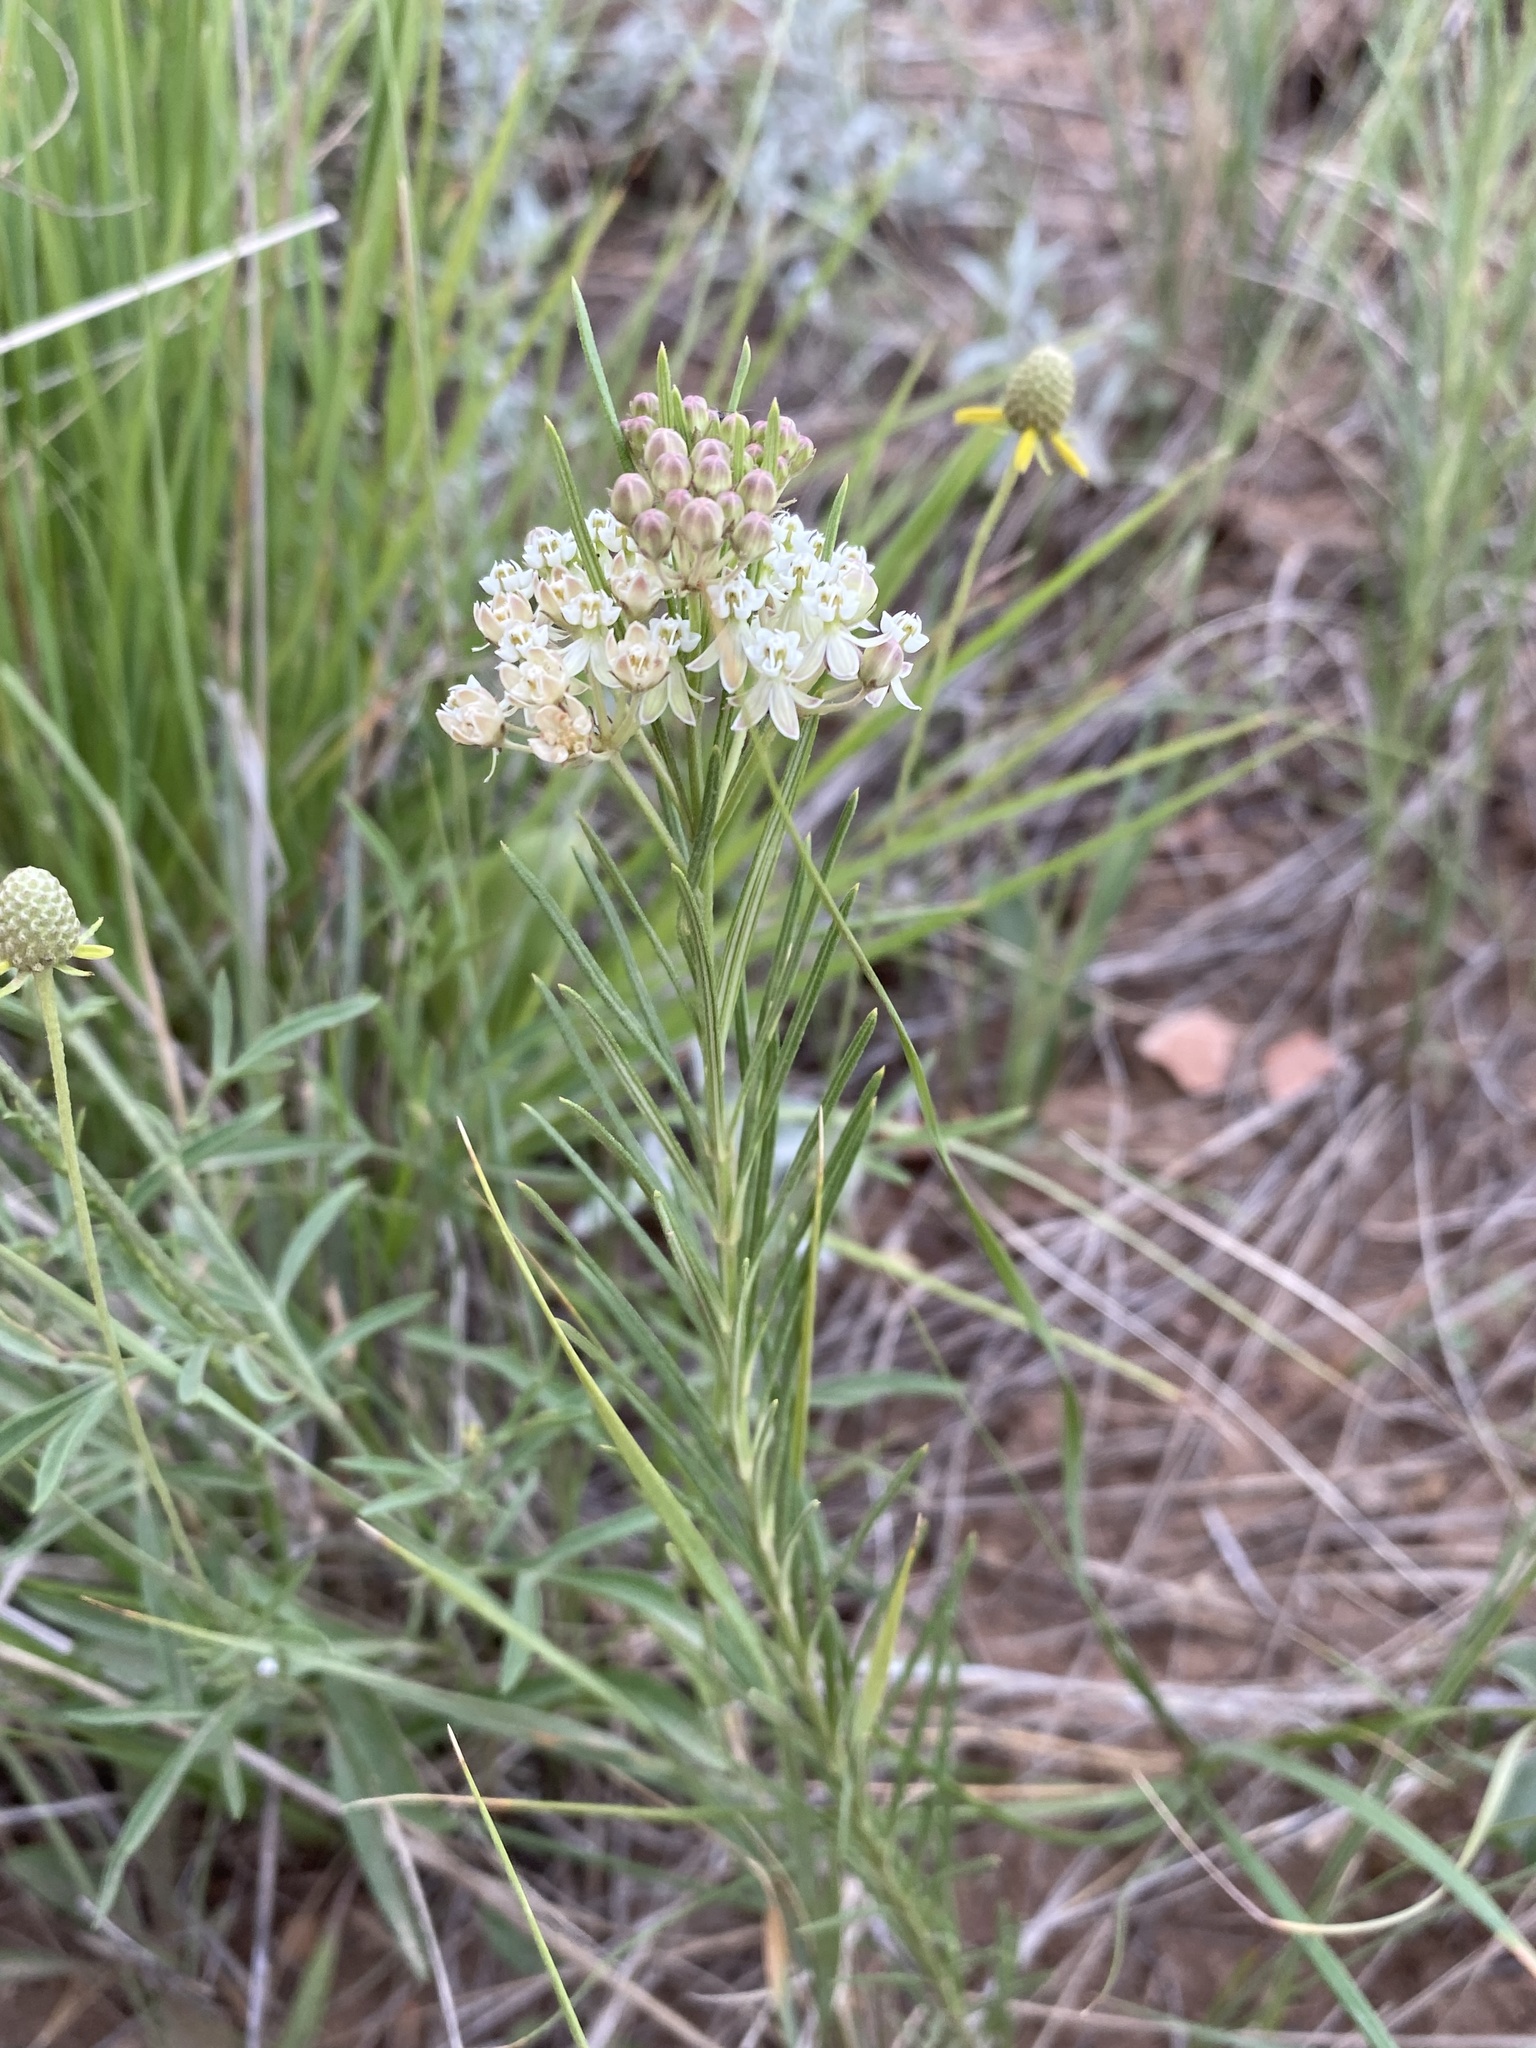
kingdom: Plantae
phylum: Tracheophyta
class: Magnoliopsida
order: Gentianales
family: Apocynaceae
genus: Asclepias
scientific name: Asclepias verticillata
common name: Eastern whorled milkweed
